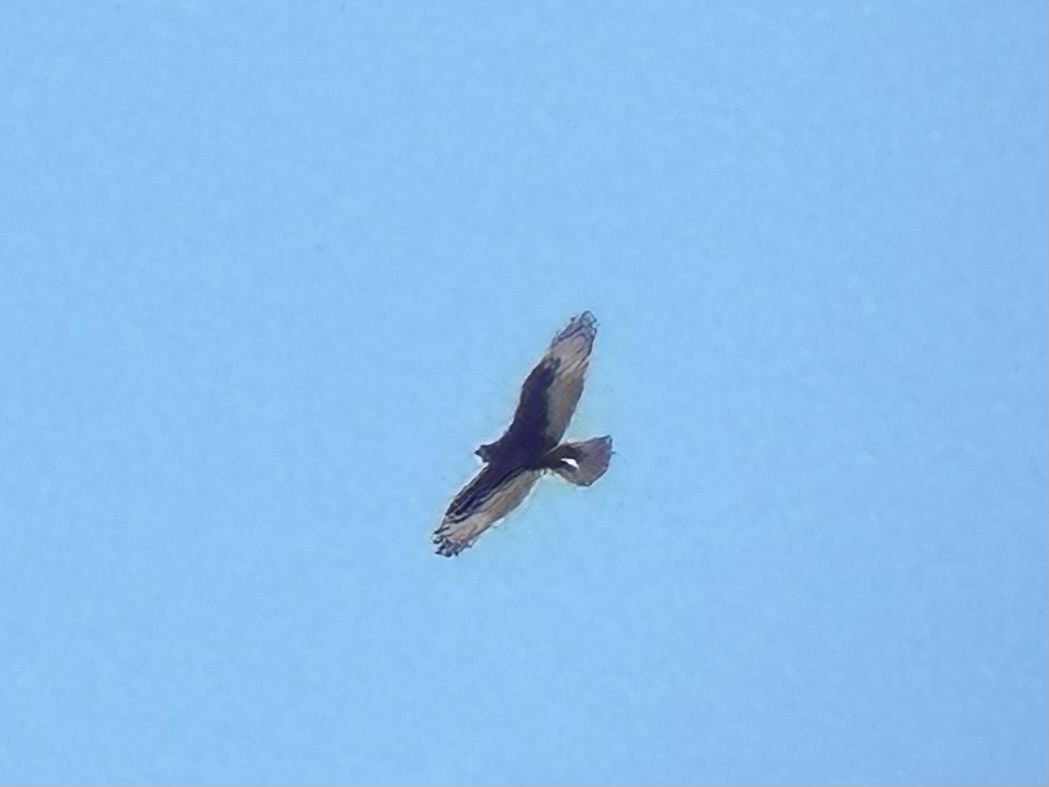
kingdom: Animalia
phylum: Chordata
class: Aves
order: Accipitriformes
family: Accipitridae
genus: Buteo
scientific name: Buteo regalis
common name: Ferruginous hawk
